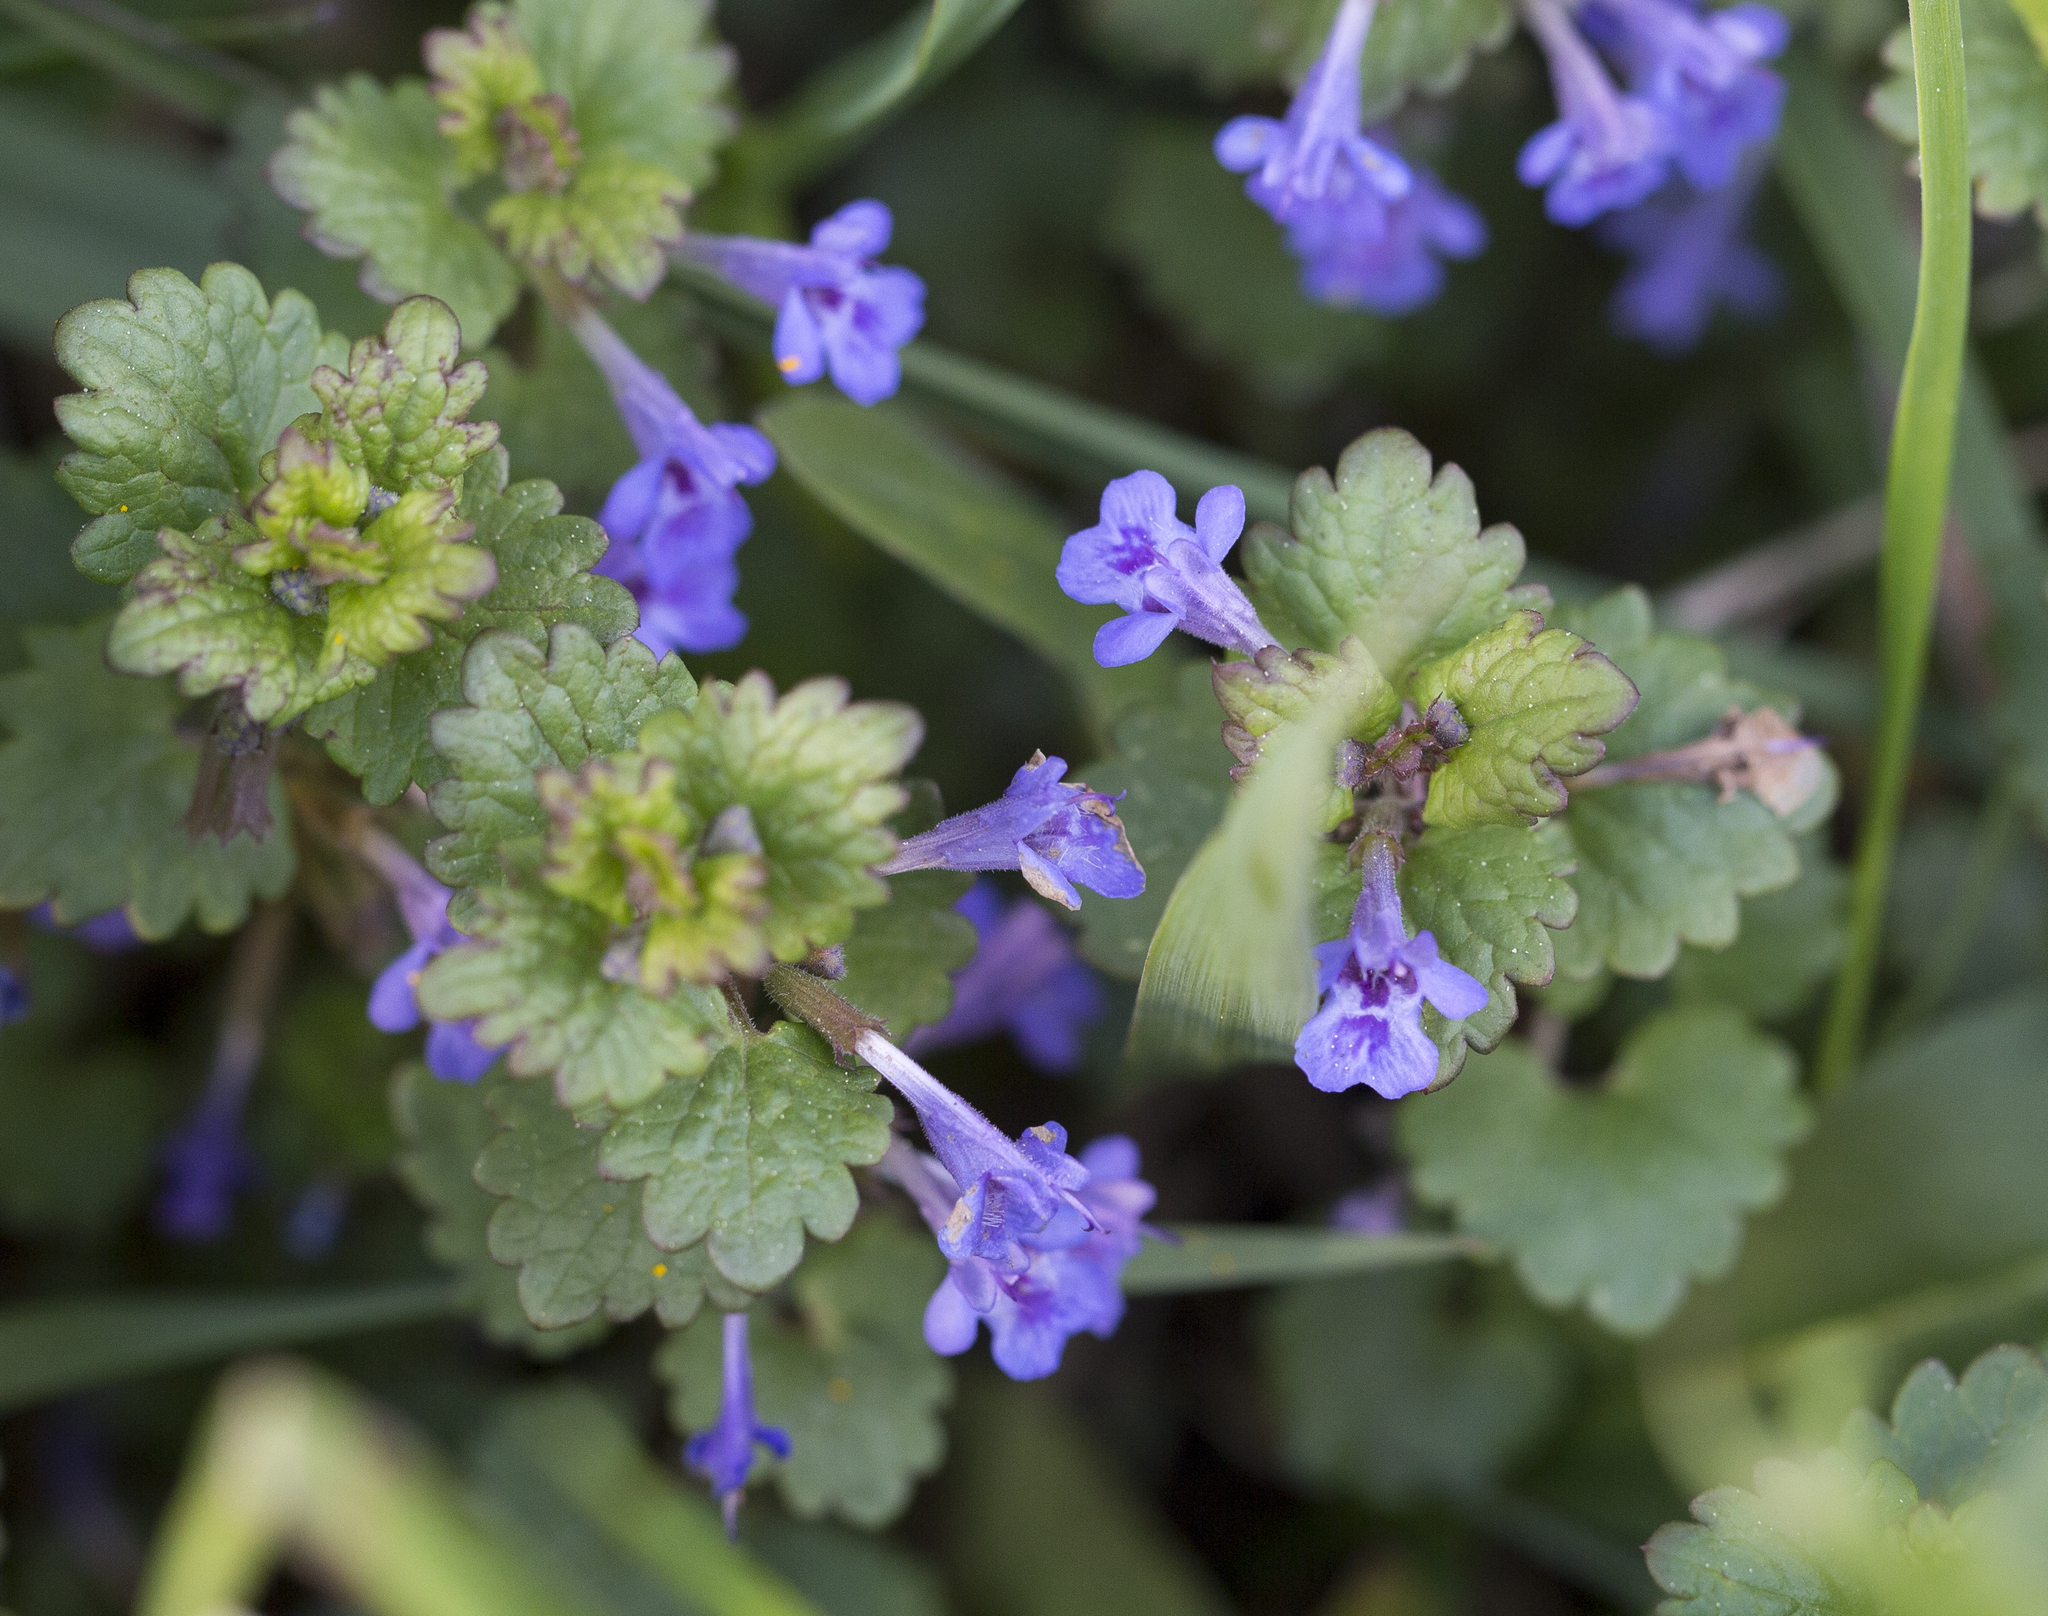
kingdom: Plantae
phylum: Tracheophyta
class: Magnoliopsida
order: Lamiales
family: Lamiaceae
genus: Glechoma
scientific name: Glechoma hederacea
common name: Ground ivy
